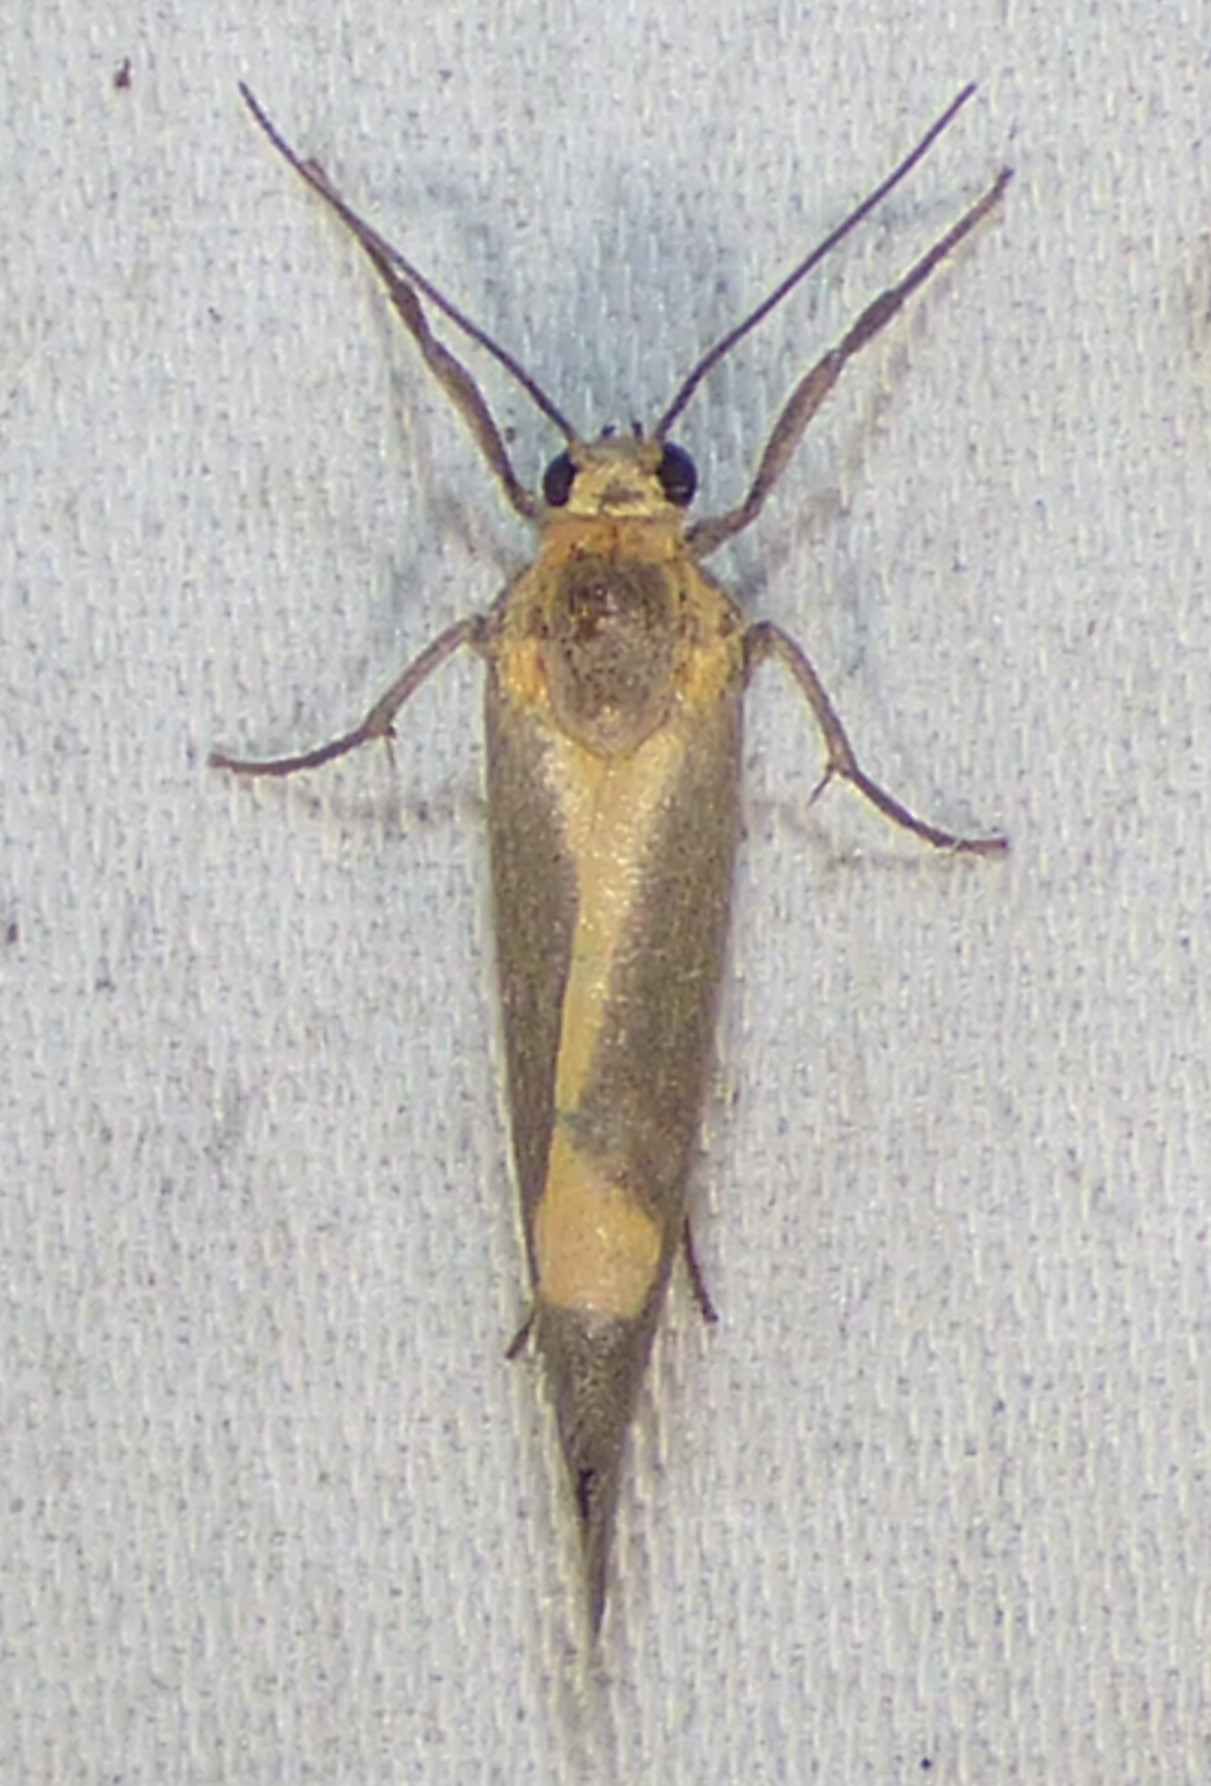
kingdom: Animalia
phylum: Arthropoda
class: Insecta
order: Lepidoptera
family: Erebidae
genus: Cisthene
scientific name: Cisthene plumbea
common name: Lead colored lichen moth
